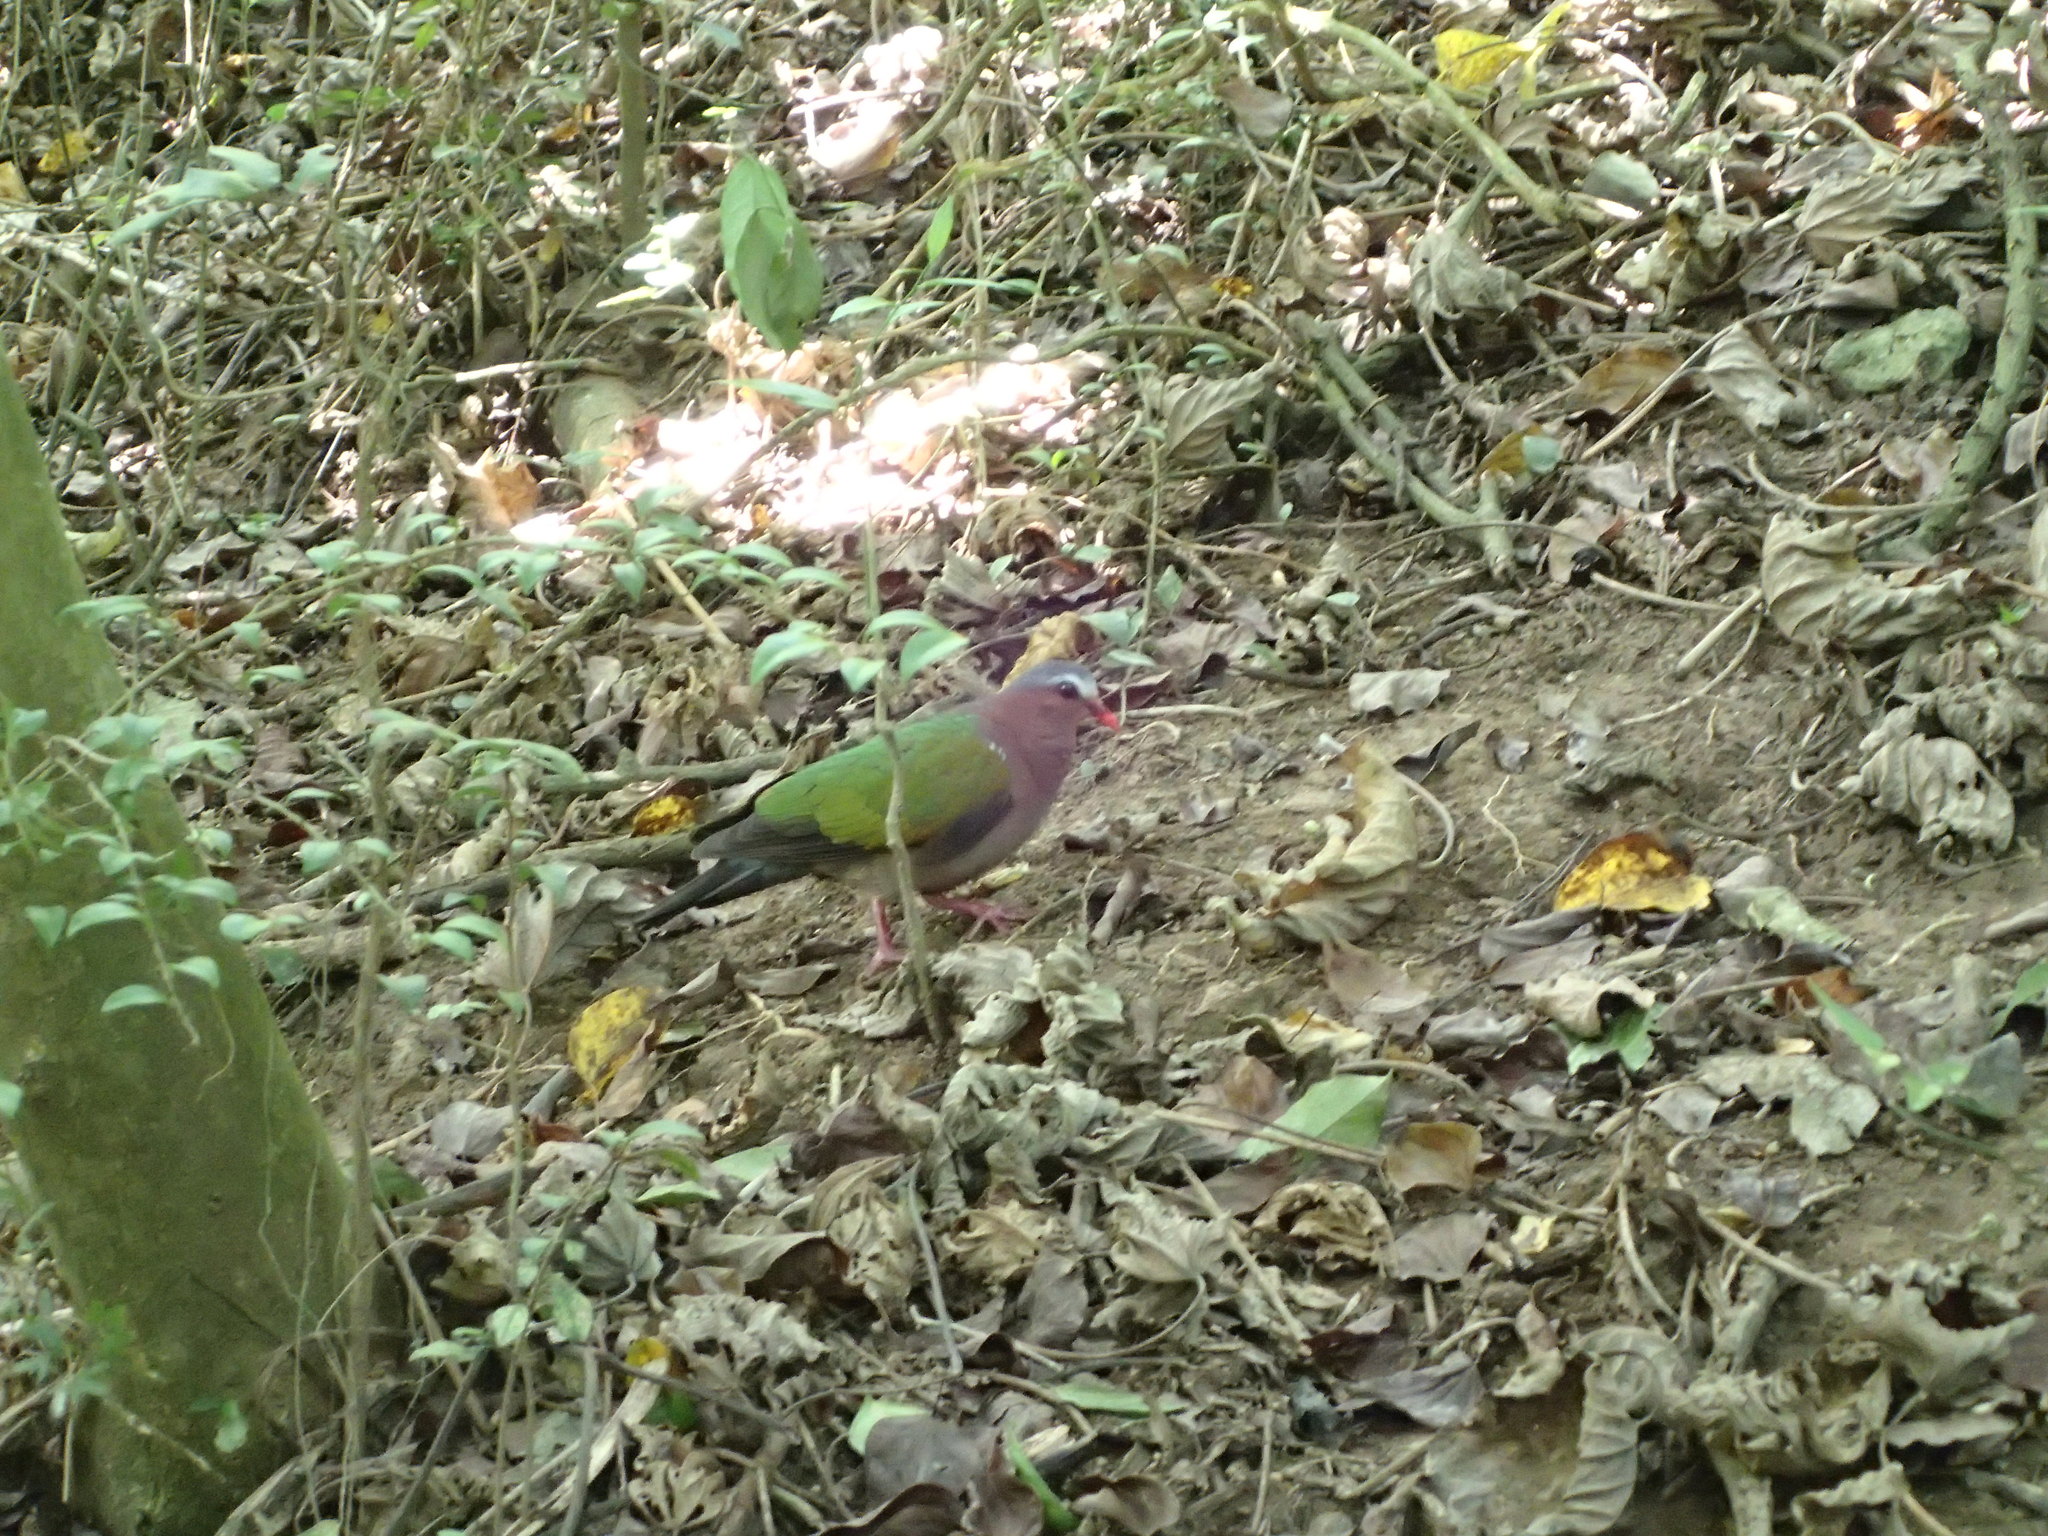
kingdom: Animalia
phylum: Chordata
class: Aves
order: Columbiformes
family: Columbidae
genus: Chalcophaps
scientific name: Chalcophaps indica
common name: Common emerald dove
